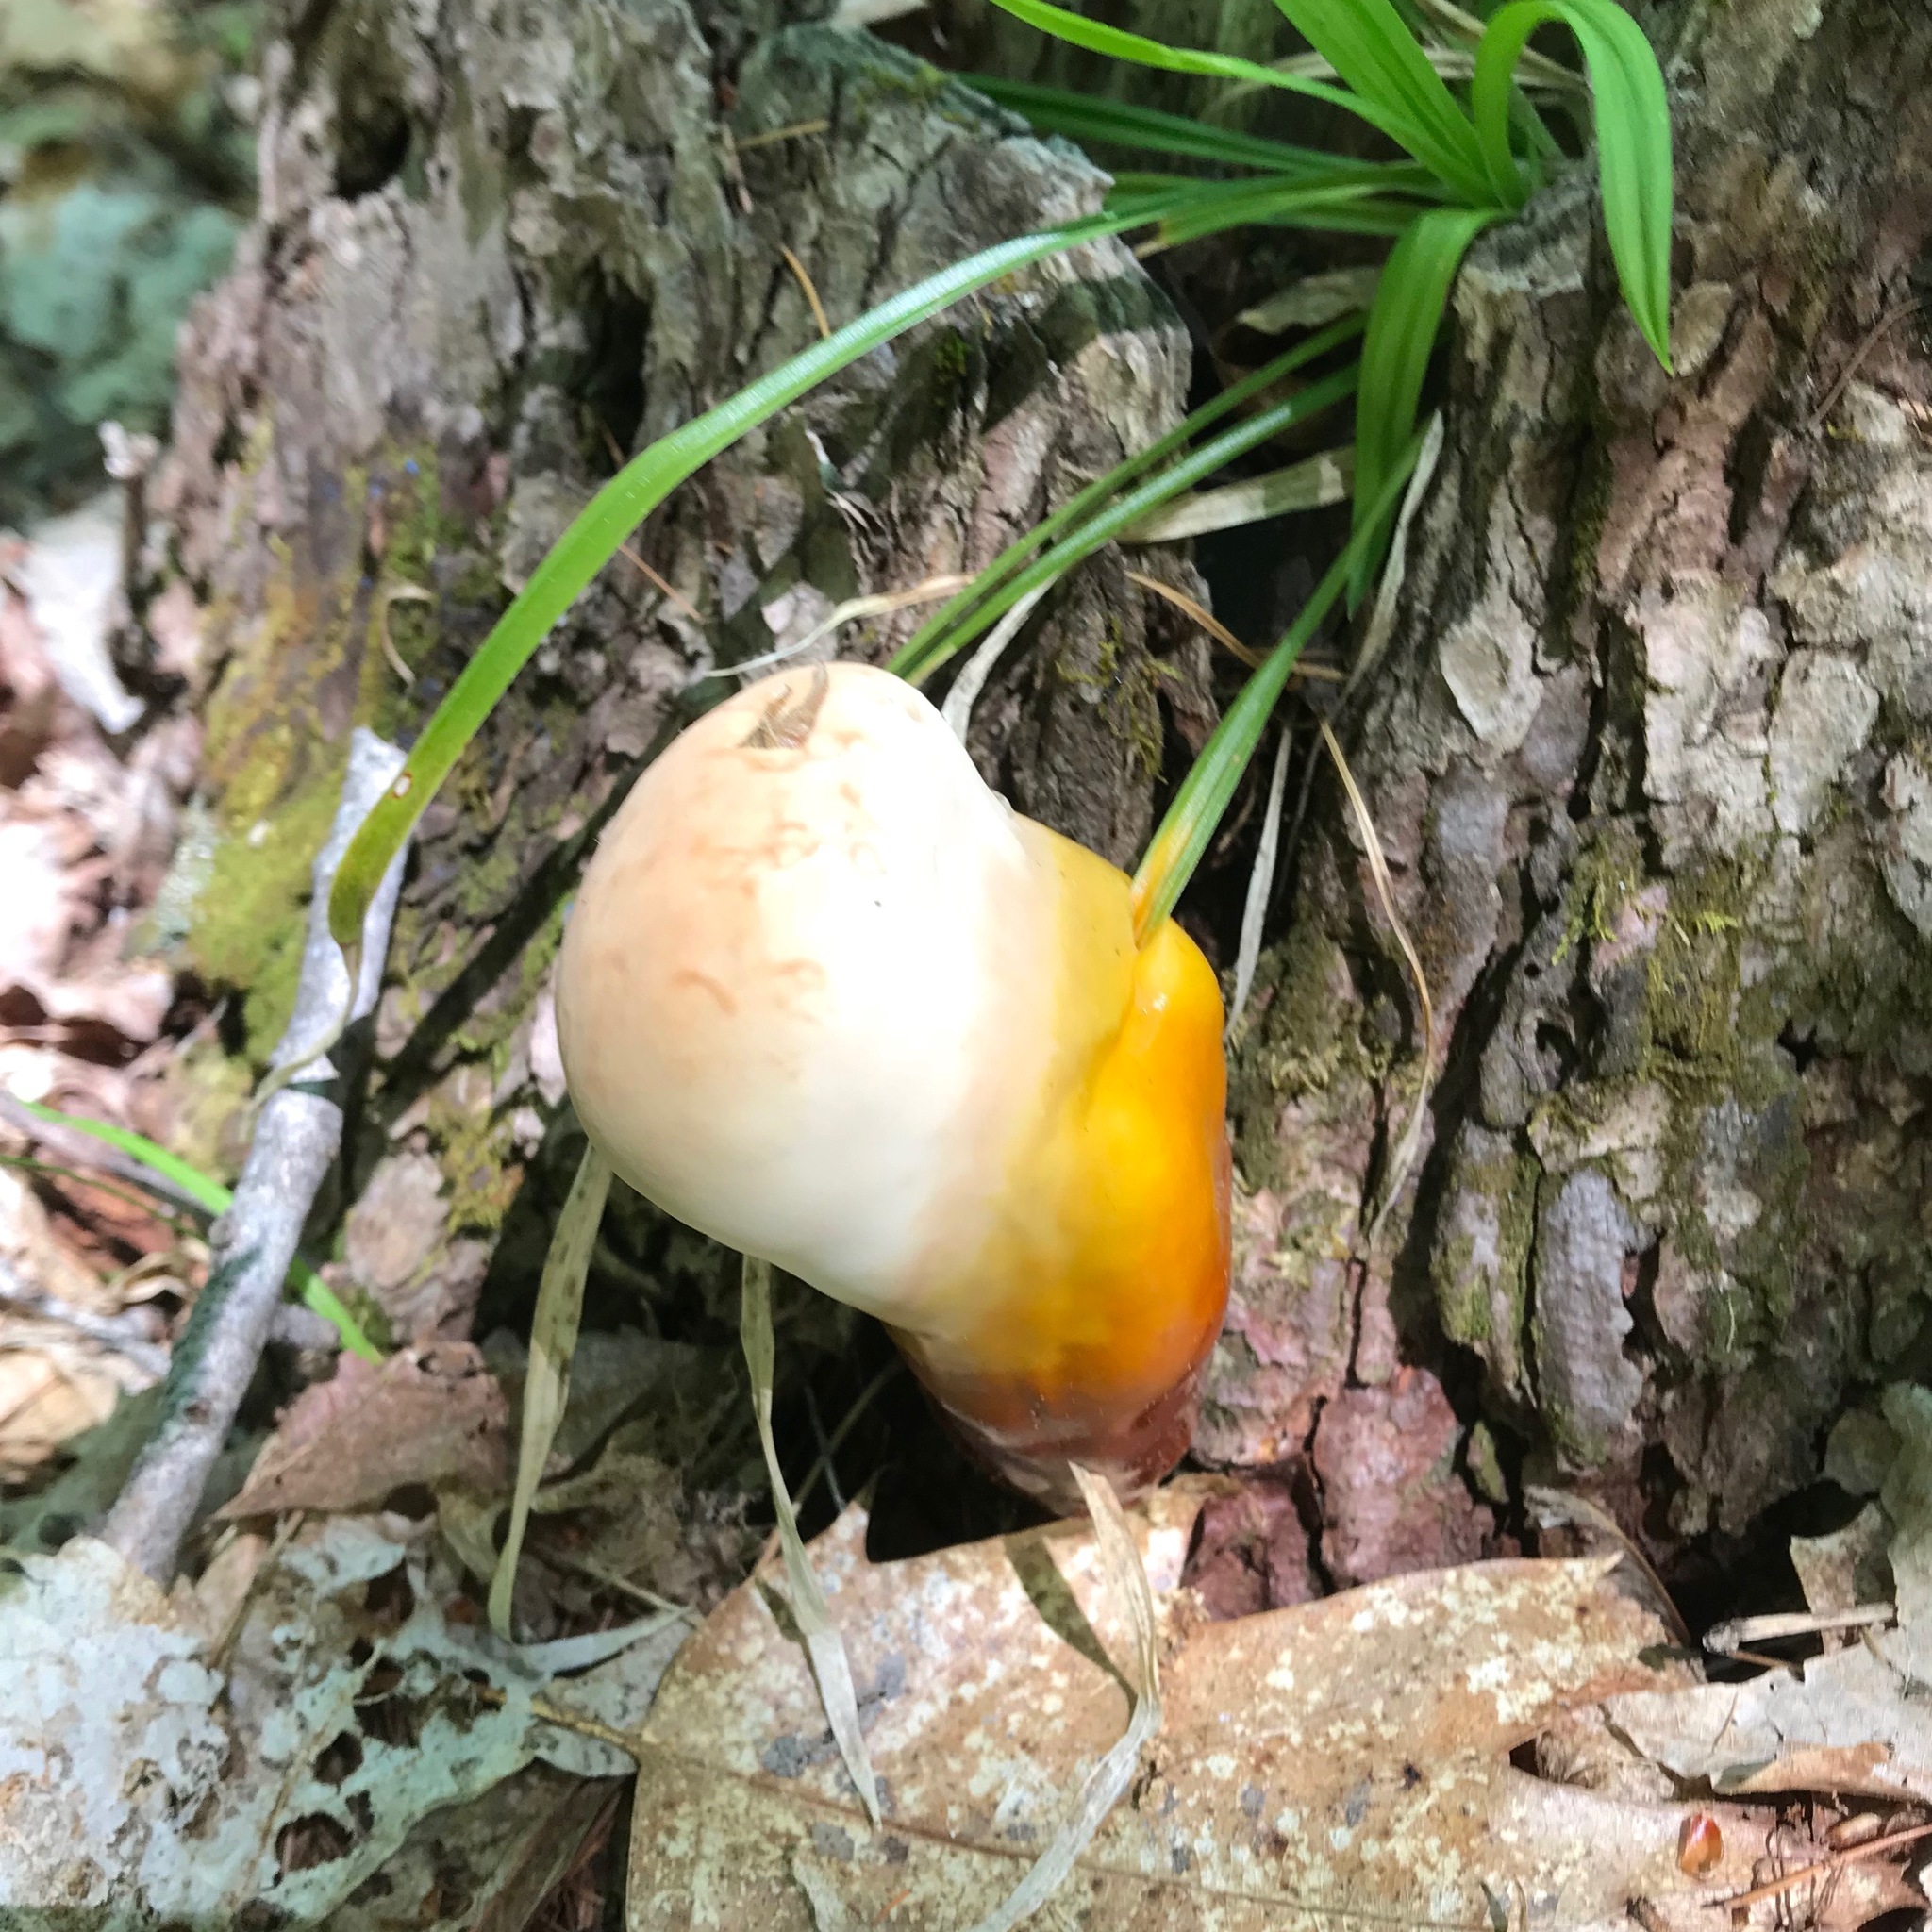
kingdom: Fungi
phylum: Basidiomycota
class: Agaricomycetes
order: Polyporales
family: Polyporaceae
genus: Ganoderma
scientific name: Ganoderma tsugae
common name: Hemlock varnish shelf
